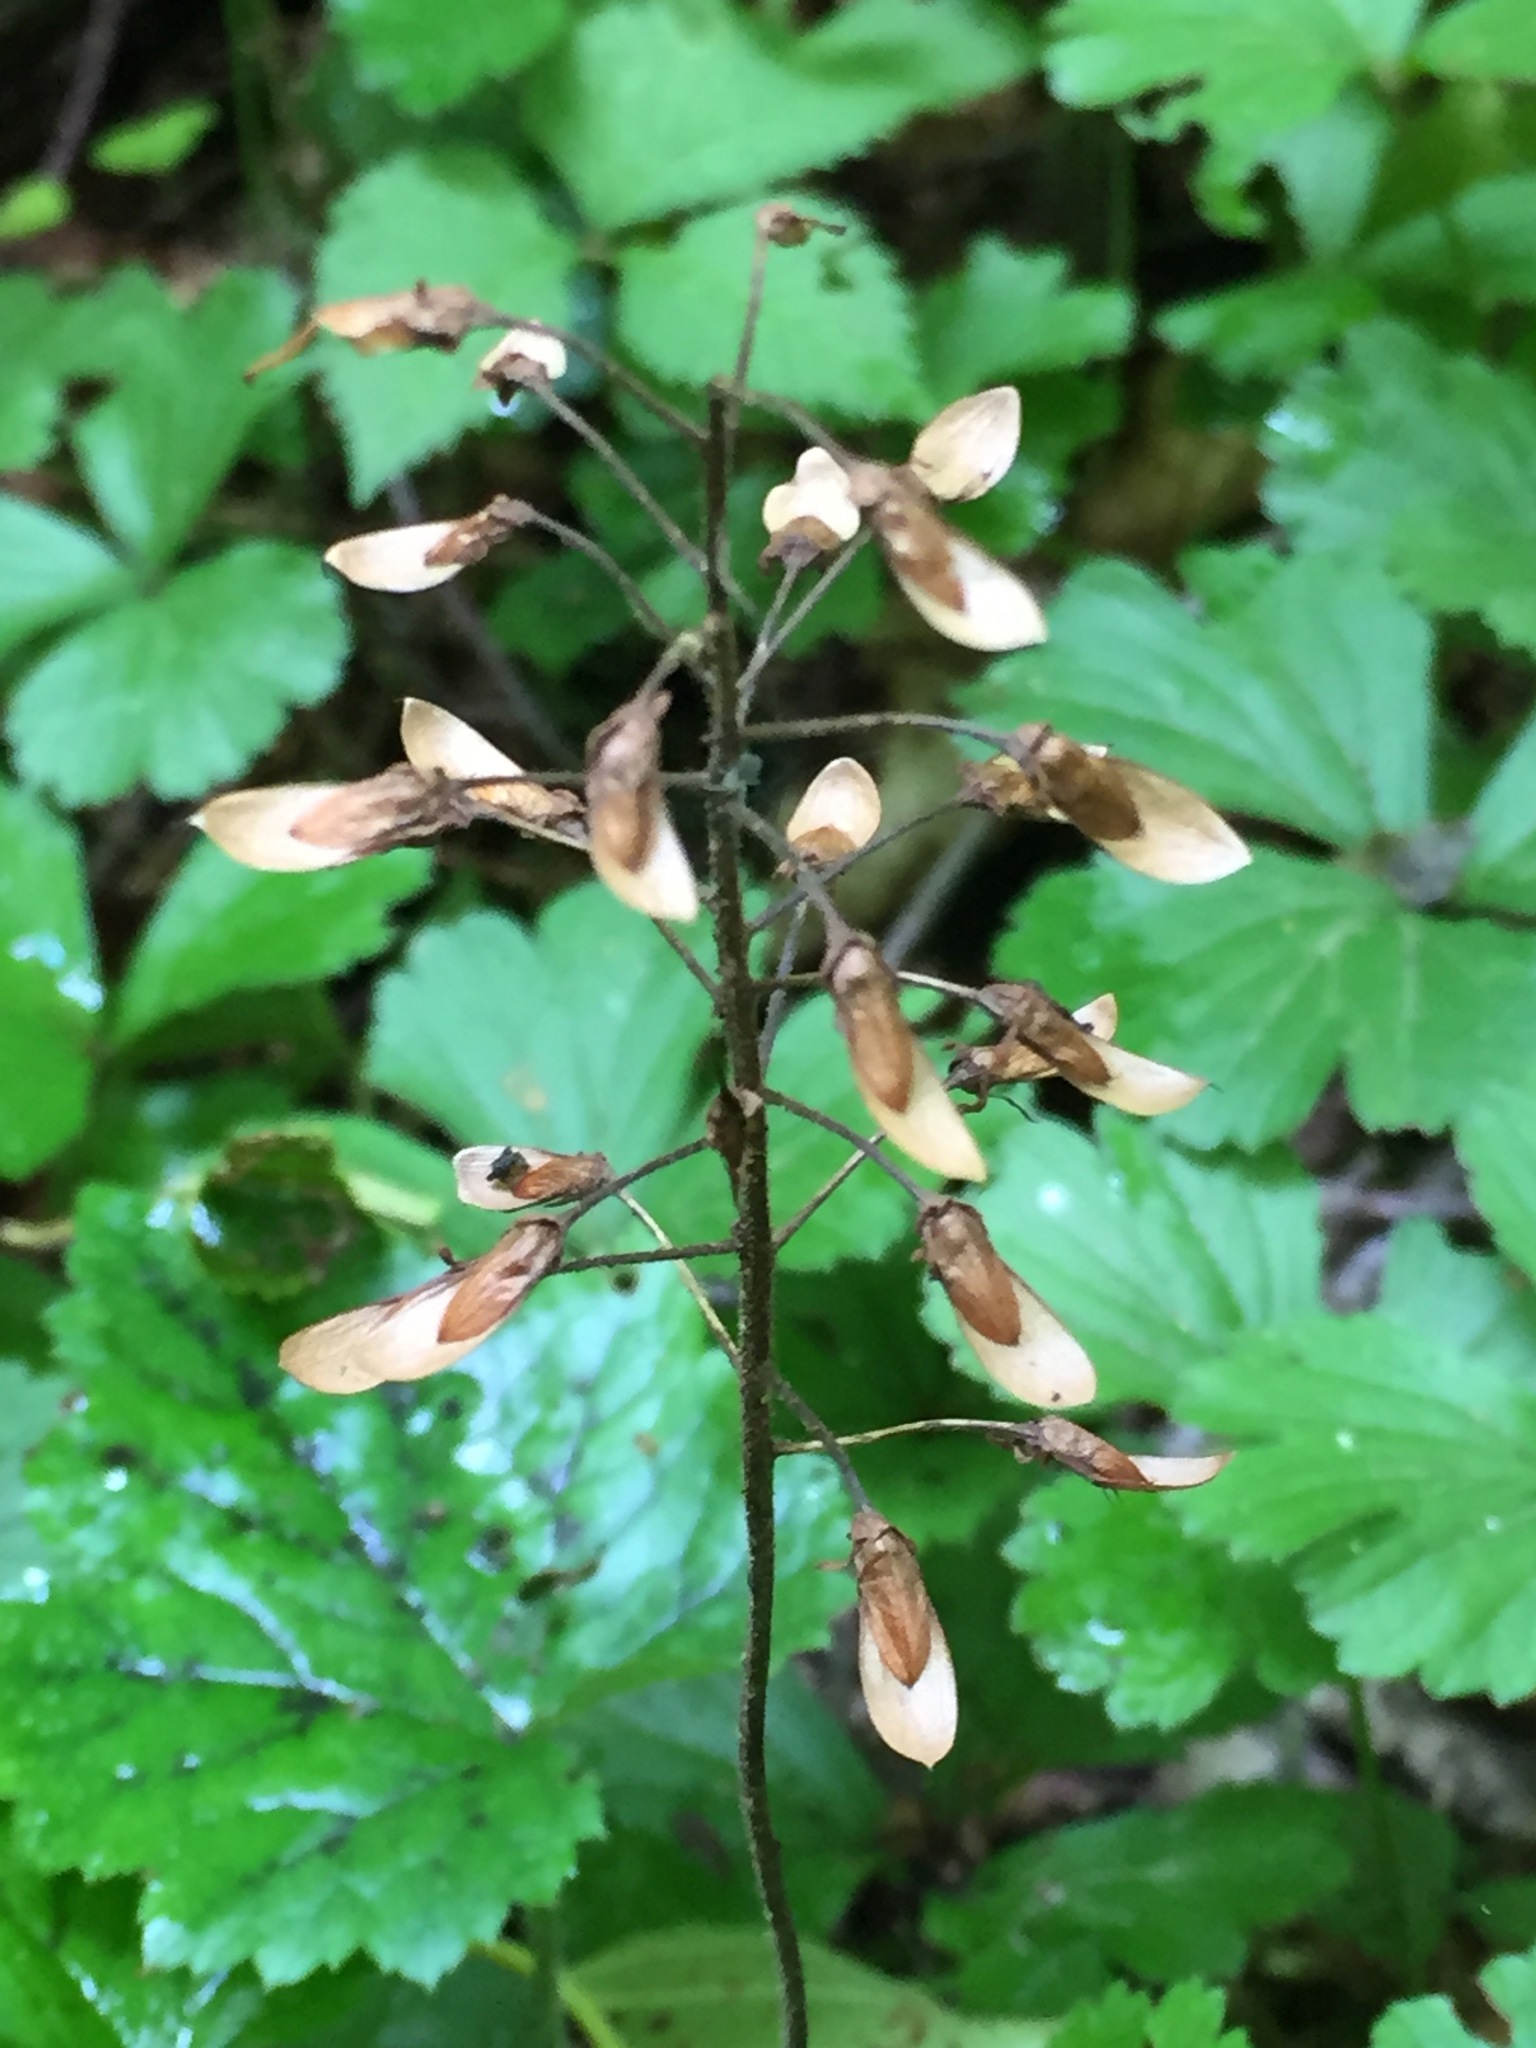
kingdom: Plantae
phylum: Tracheophyta
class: Magnoliopsida
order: Saxifragales
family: Saxifragaceae
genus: Tiarella
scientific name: Tiarella stolonifera
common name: Stoloniferous foamflower
